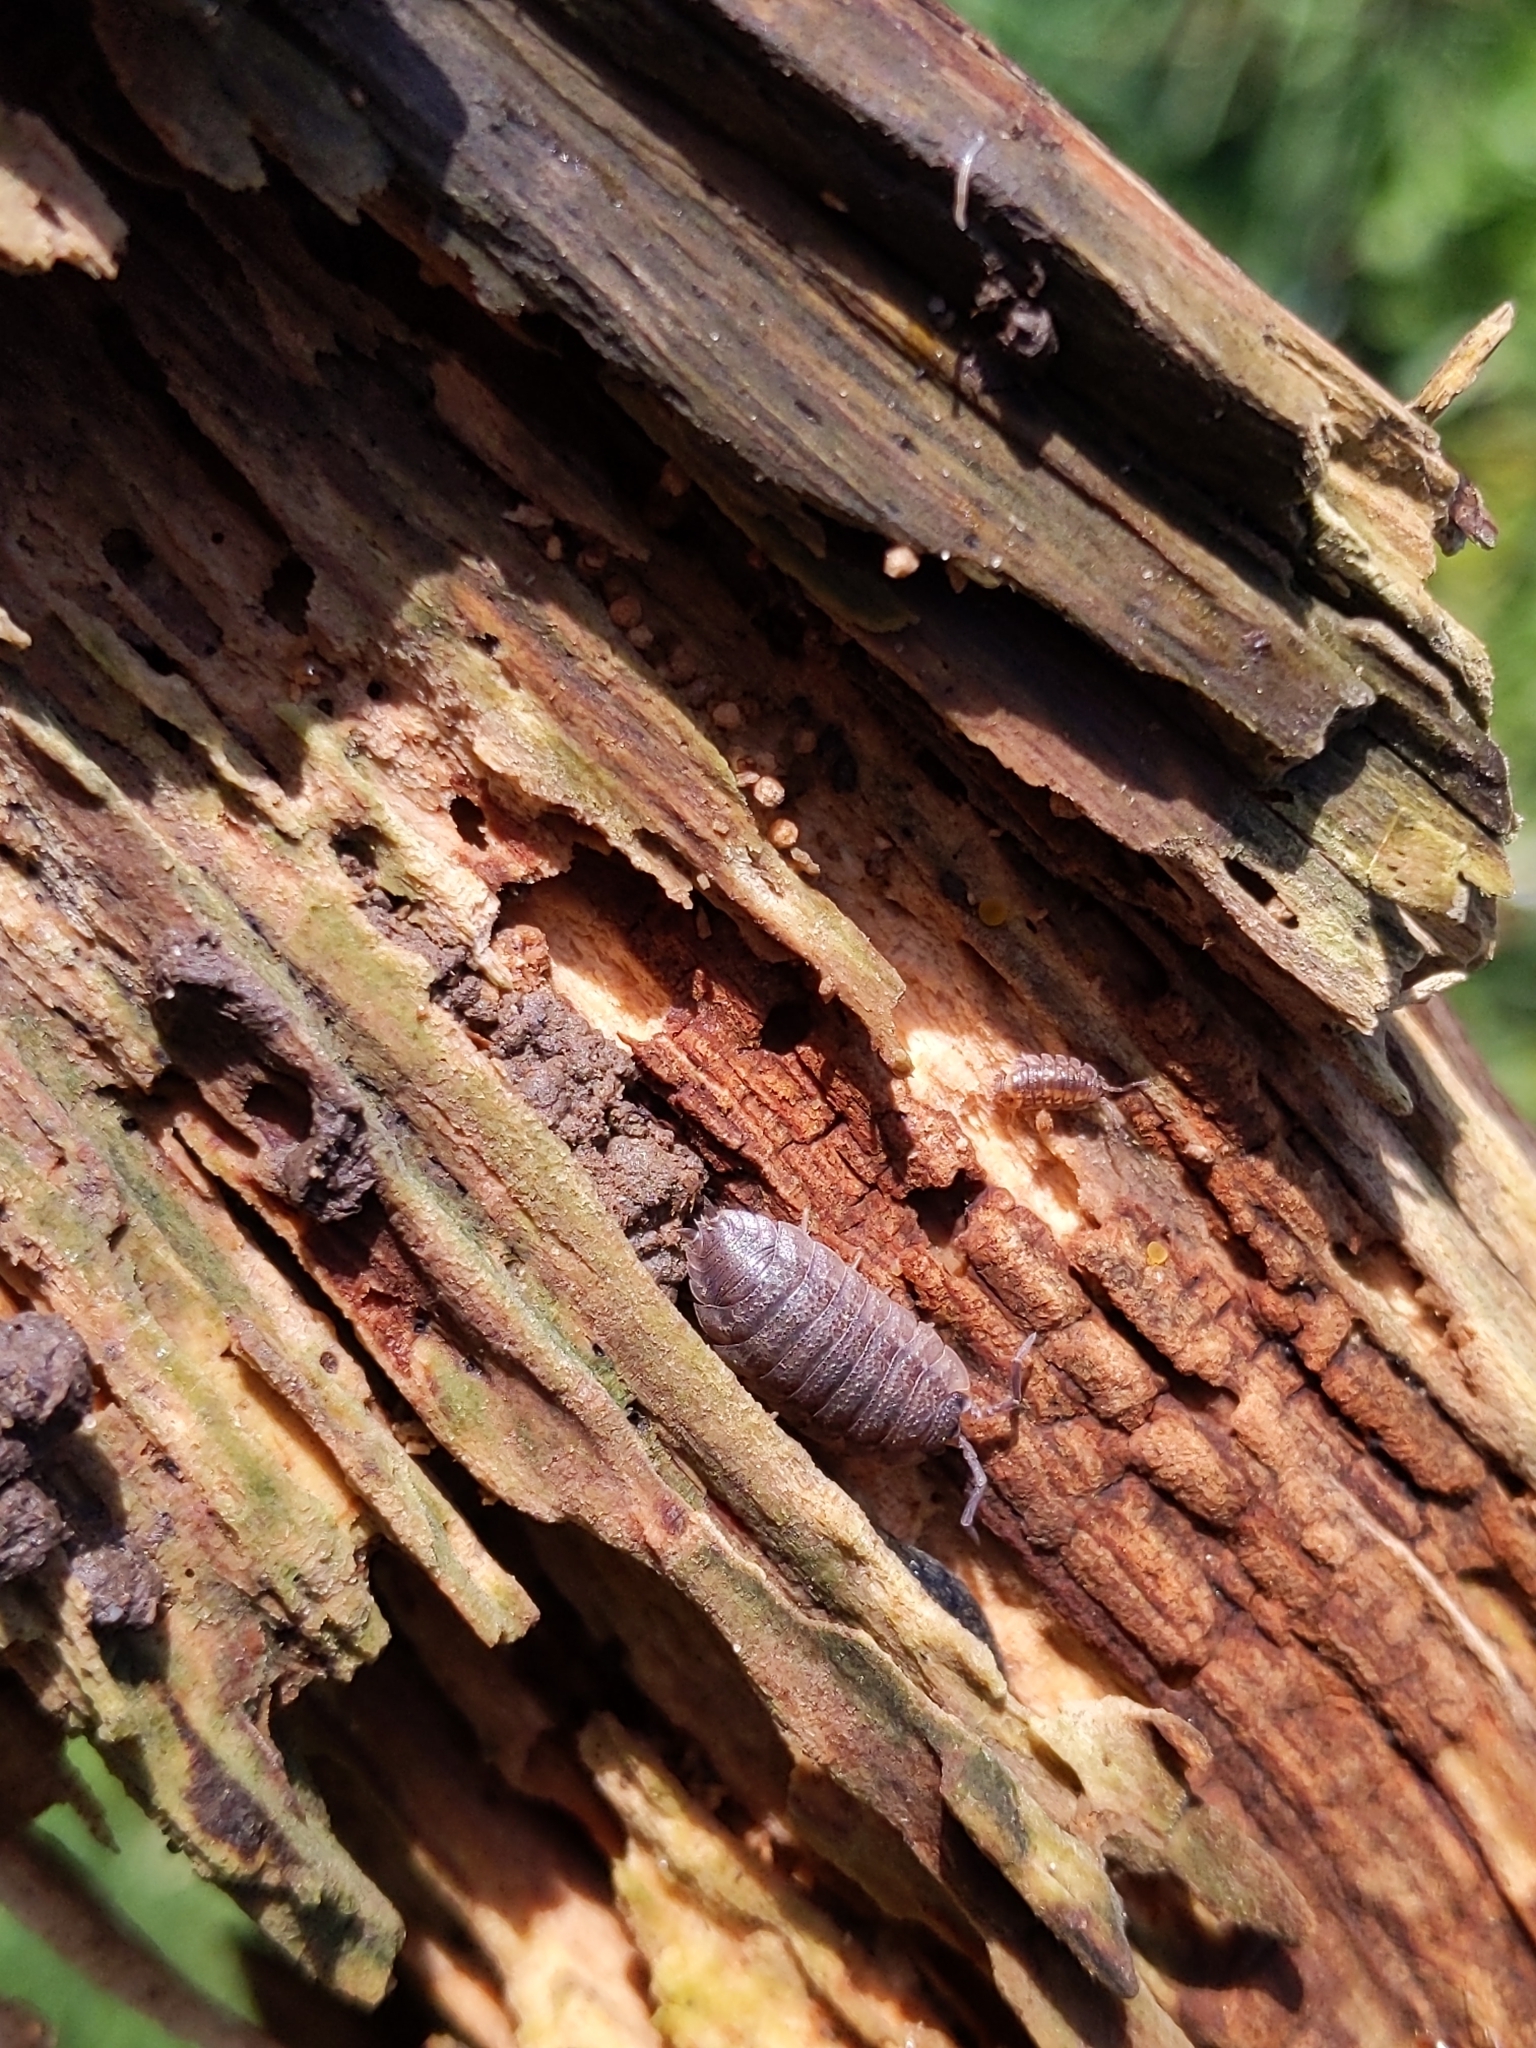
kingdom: Animalia
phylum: Arthropoda
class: Malacostraca
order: Isopoda
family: Porcellionidae
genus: Porcellio
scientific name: Porcellio scaber
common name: Common rough woodlouse
